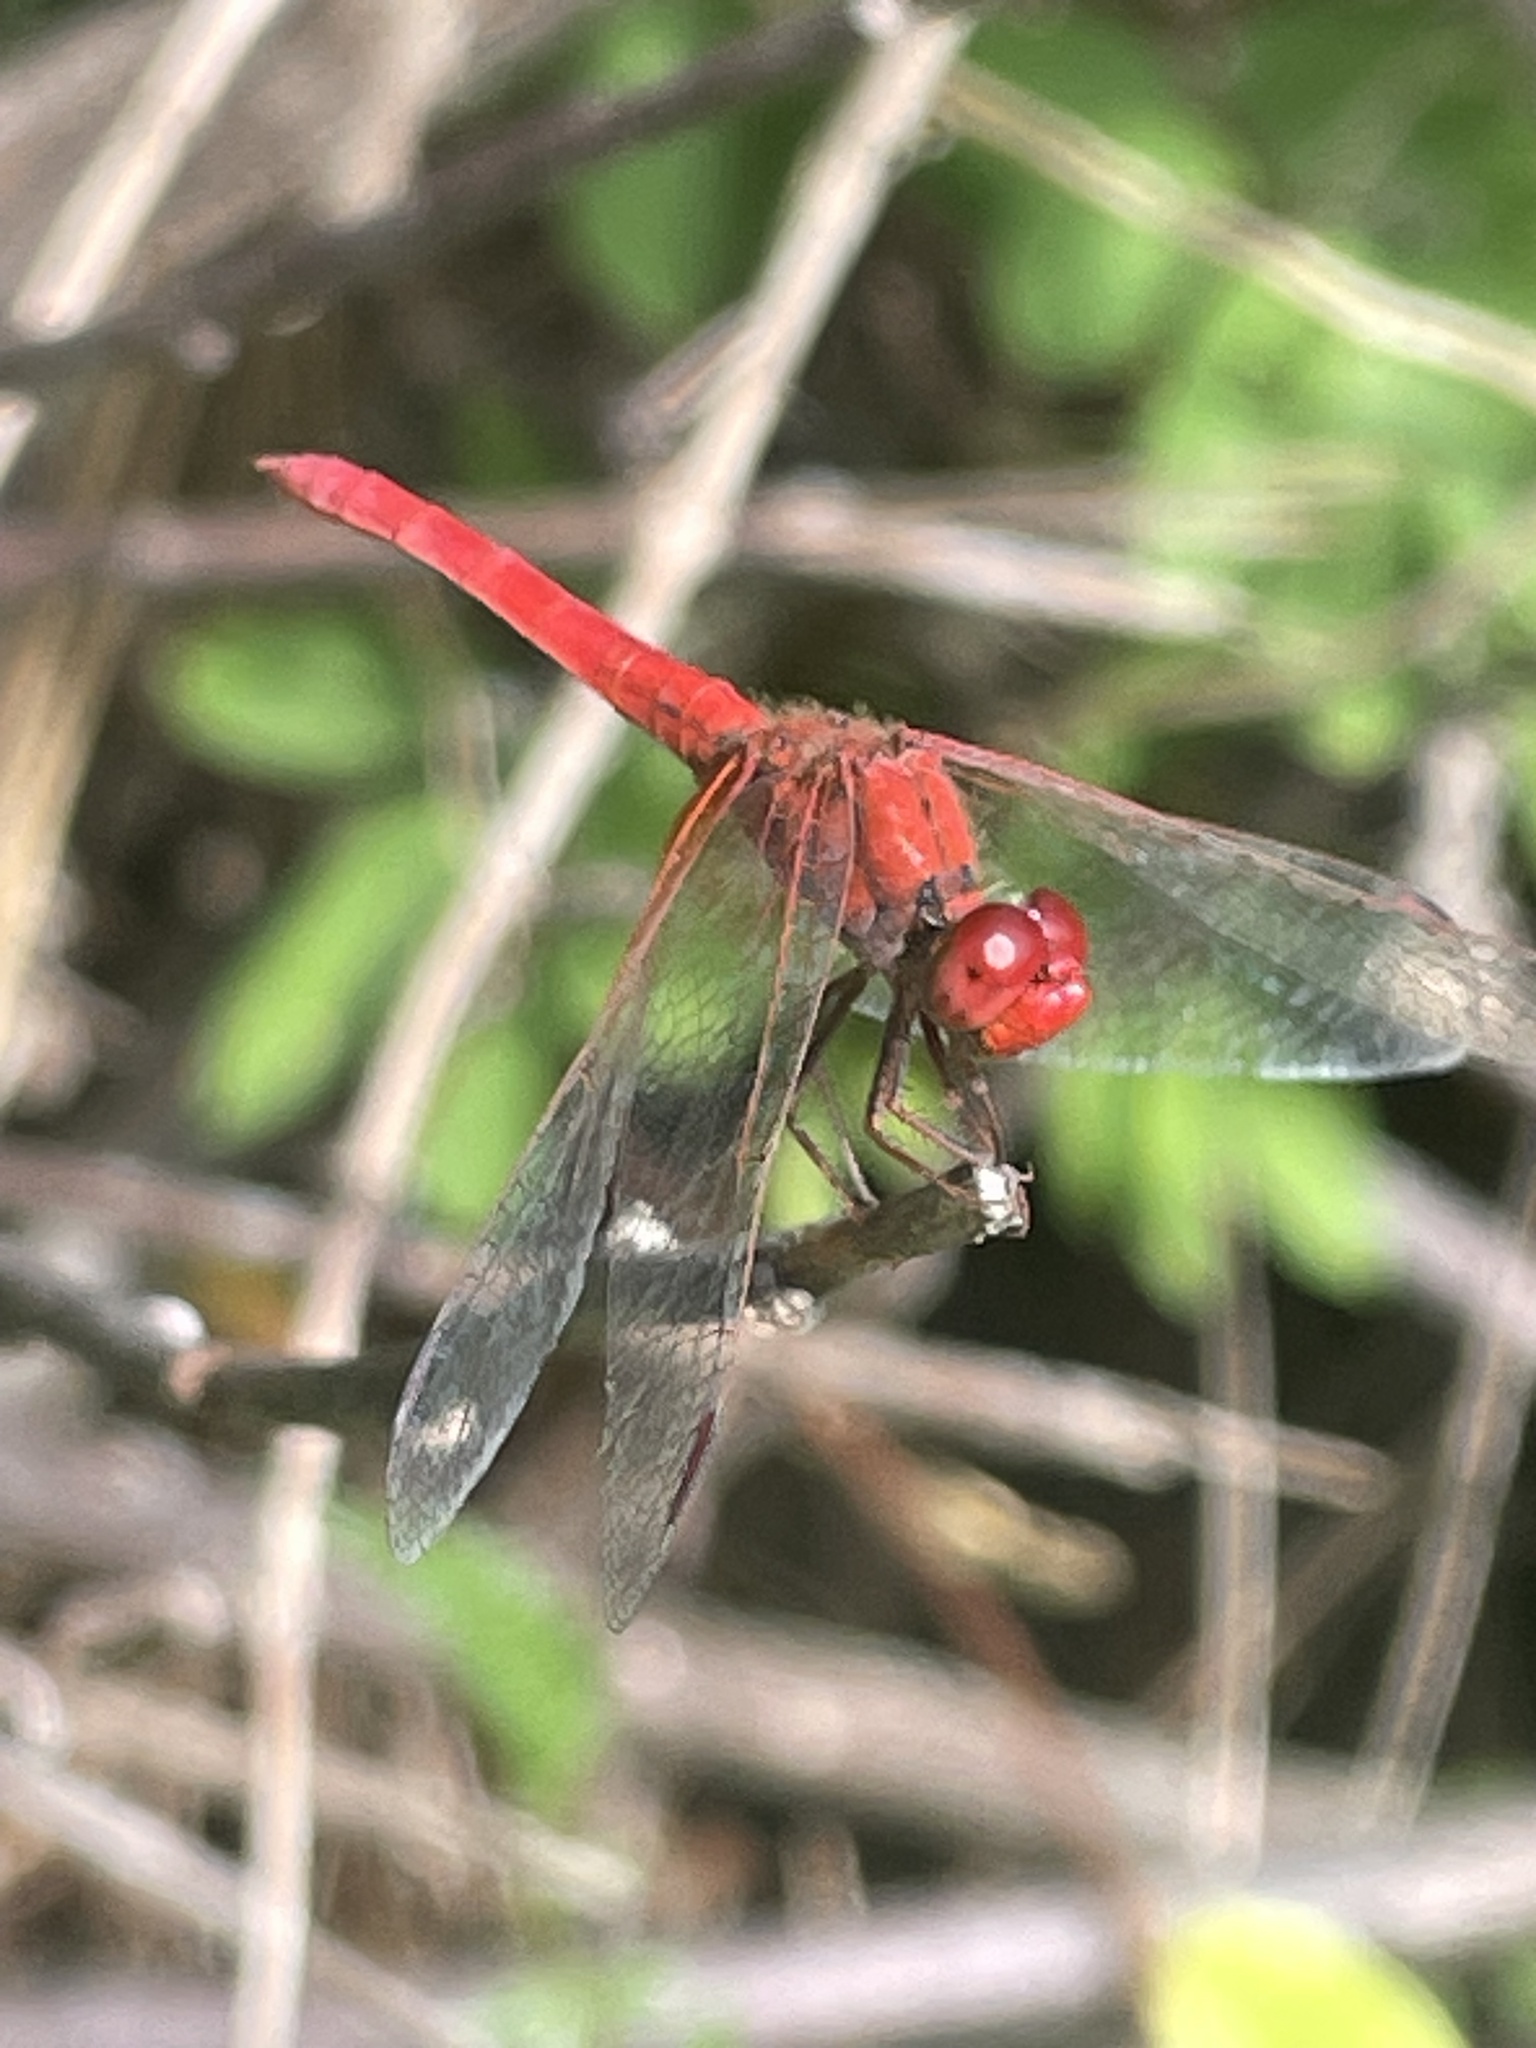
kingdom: Animalia
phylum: Arthropoda
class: Insecta
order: Odonata
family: Libellulidae
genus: Diplacodes
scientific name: Diplacodes haematodes
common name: Scarlet percher
